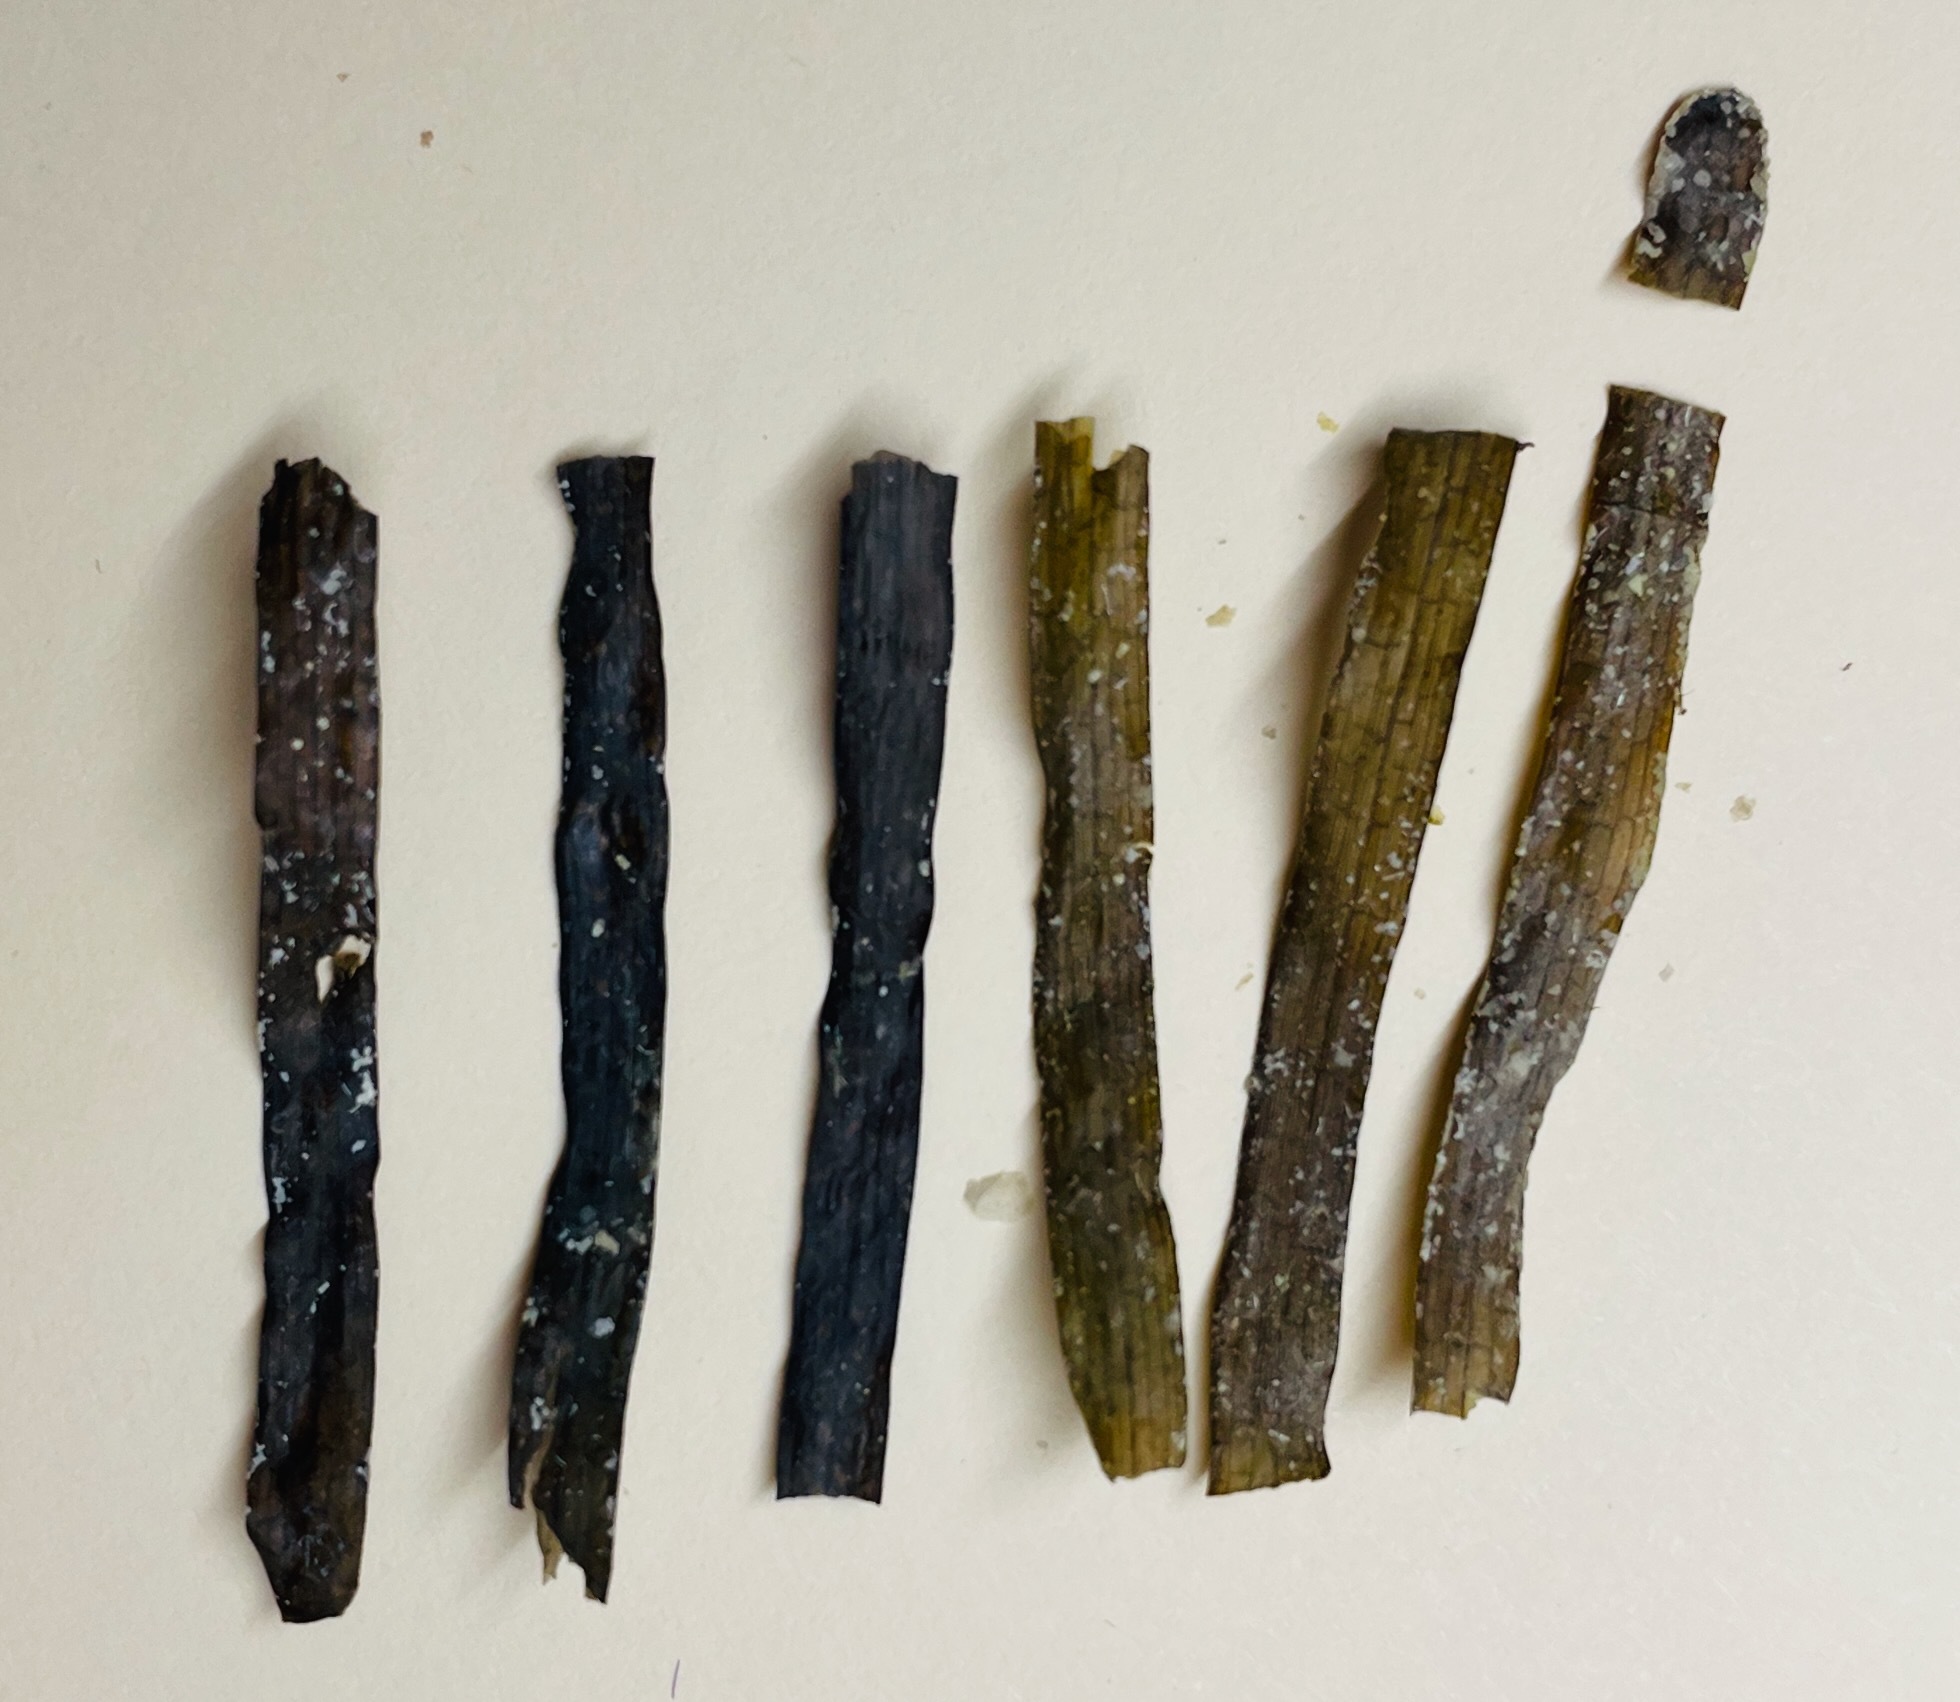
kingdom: Plantae
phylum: Tracheophyta
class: Liliopsida
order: Alismatales
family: Hydrocharitaceae
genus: Thalassia
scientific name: Thalassia testudinum
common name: Species code: tt
